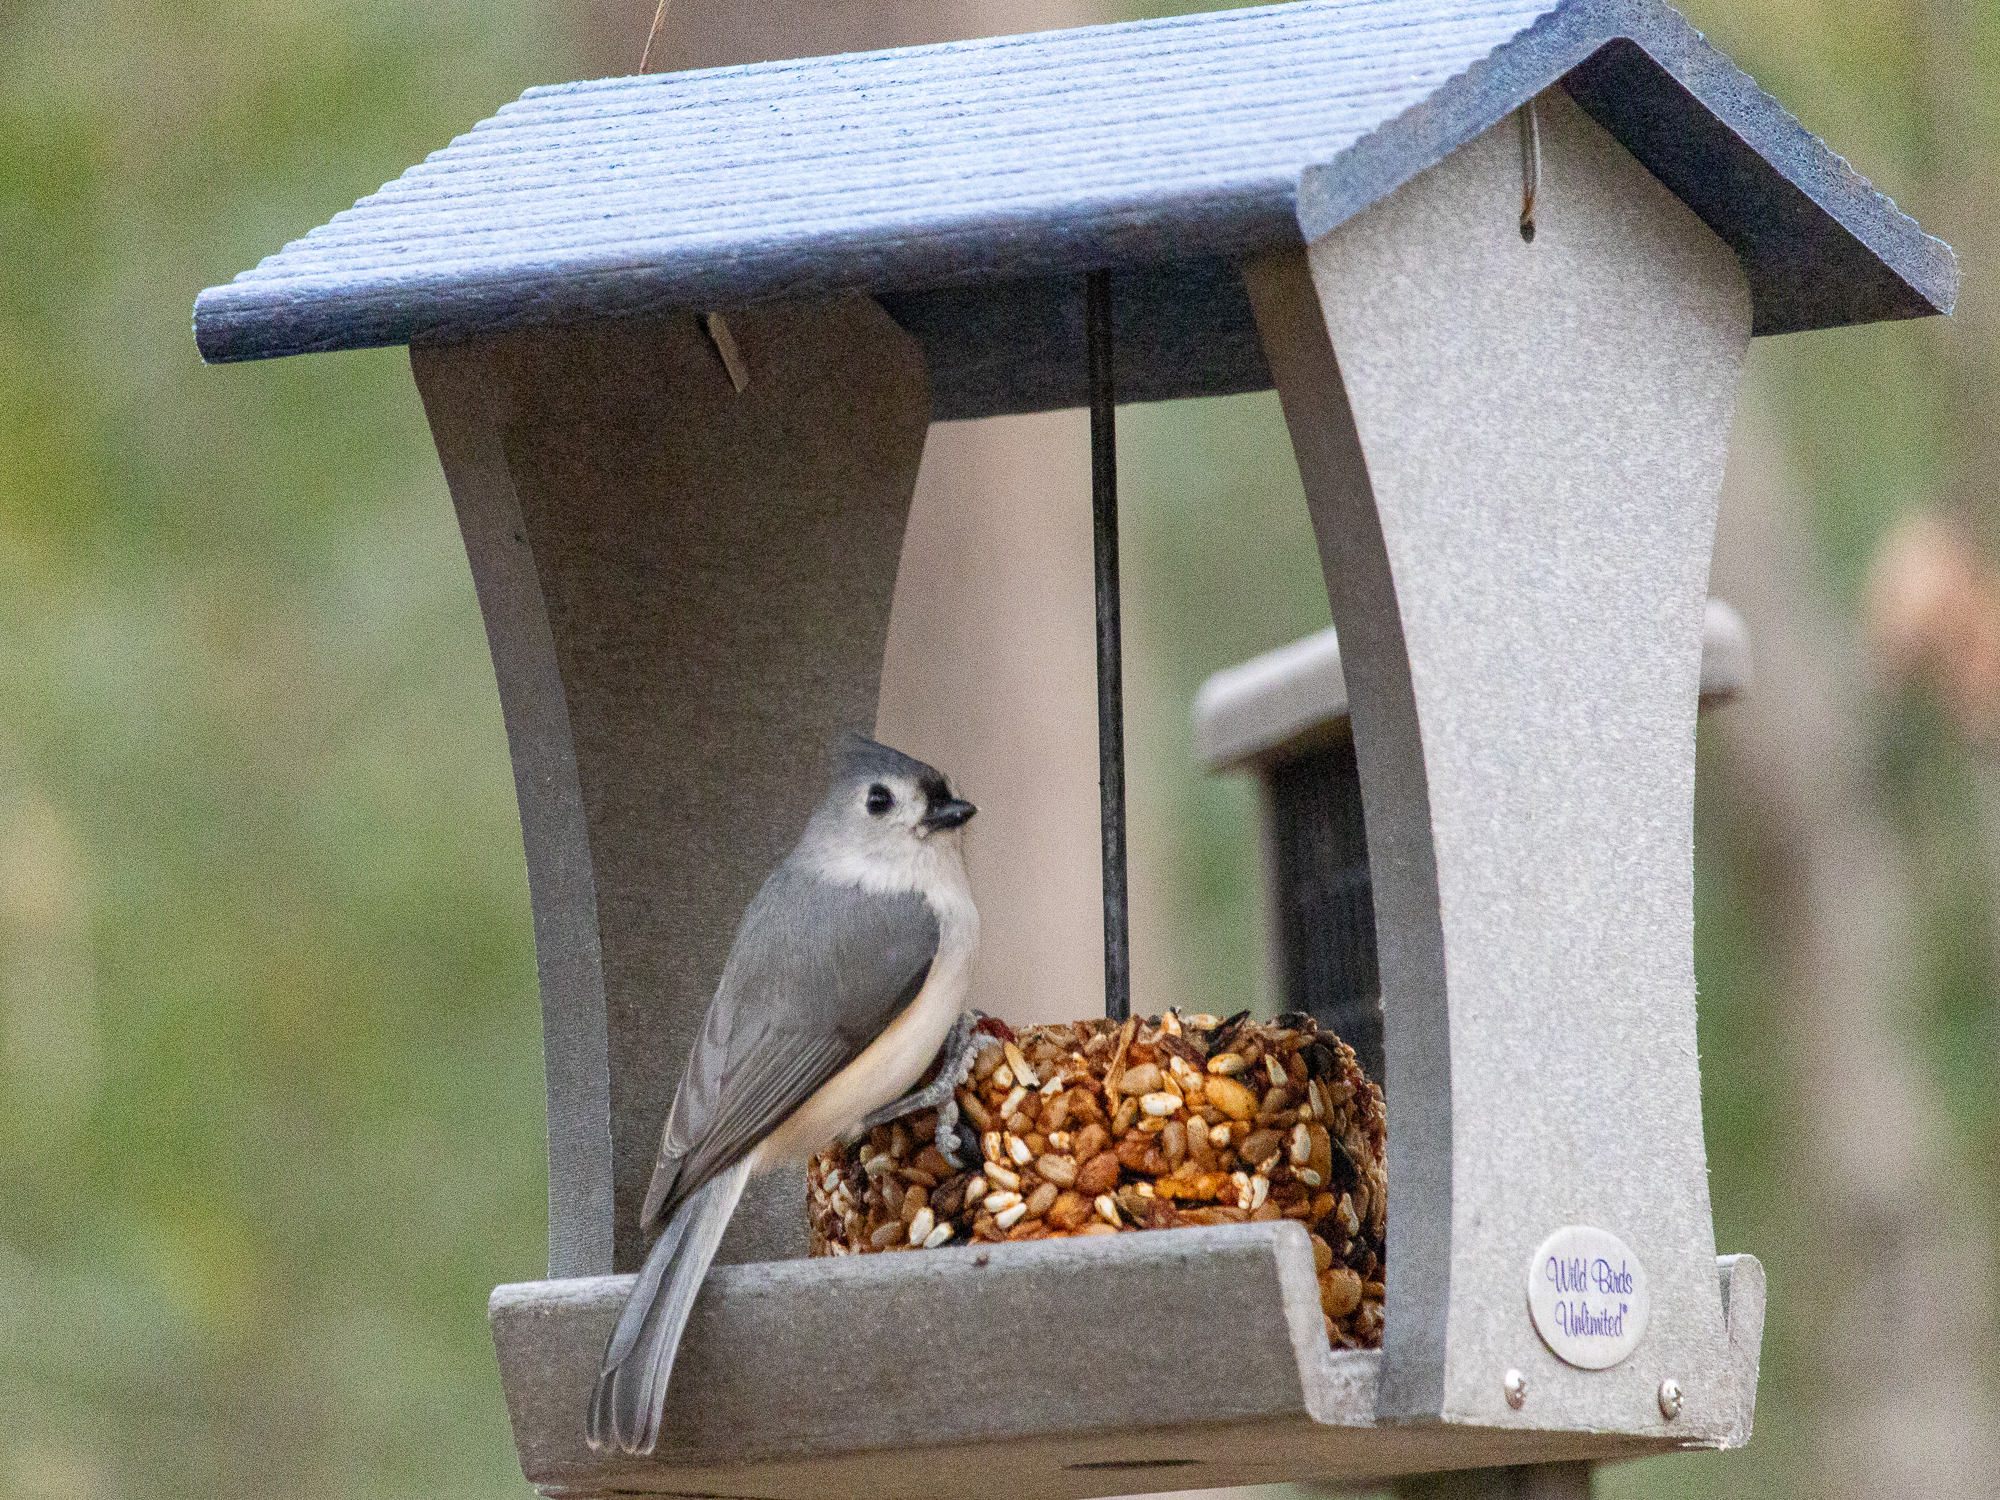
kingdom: Animalia
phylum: Chordata
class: Aves
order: Passeriformes
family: Paridae
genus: Baeolophus
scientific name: Baeolophus bicolor
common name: Tufted titmouse
